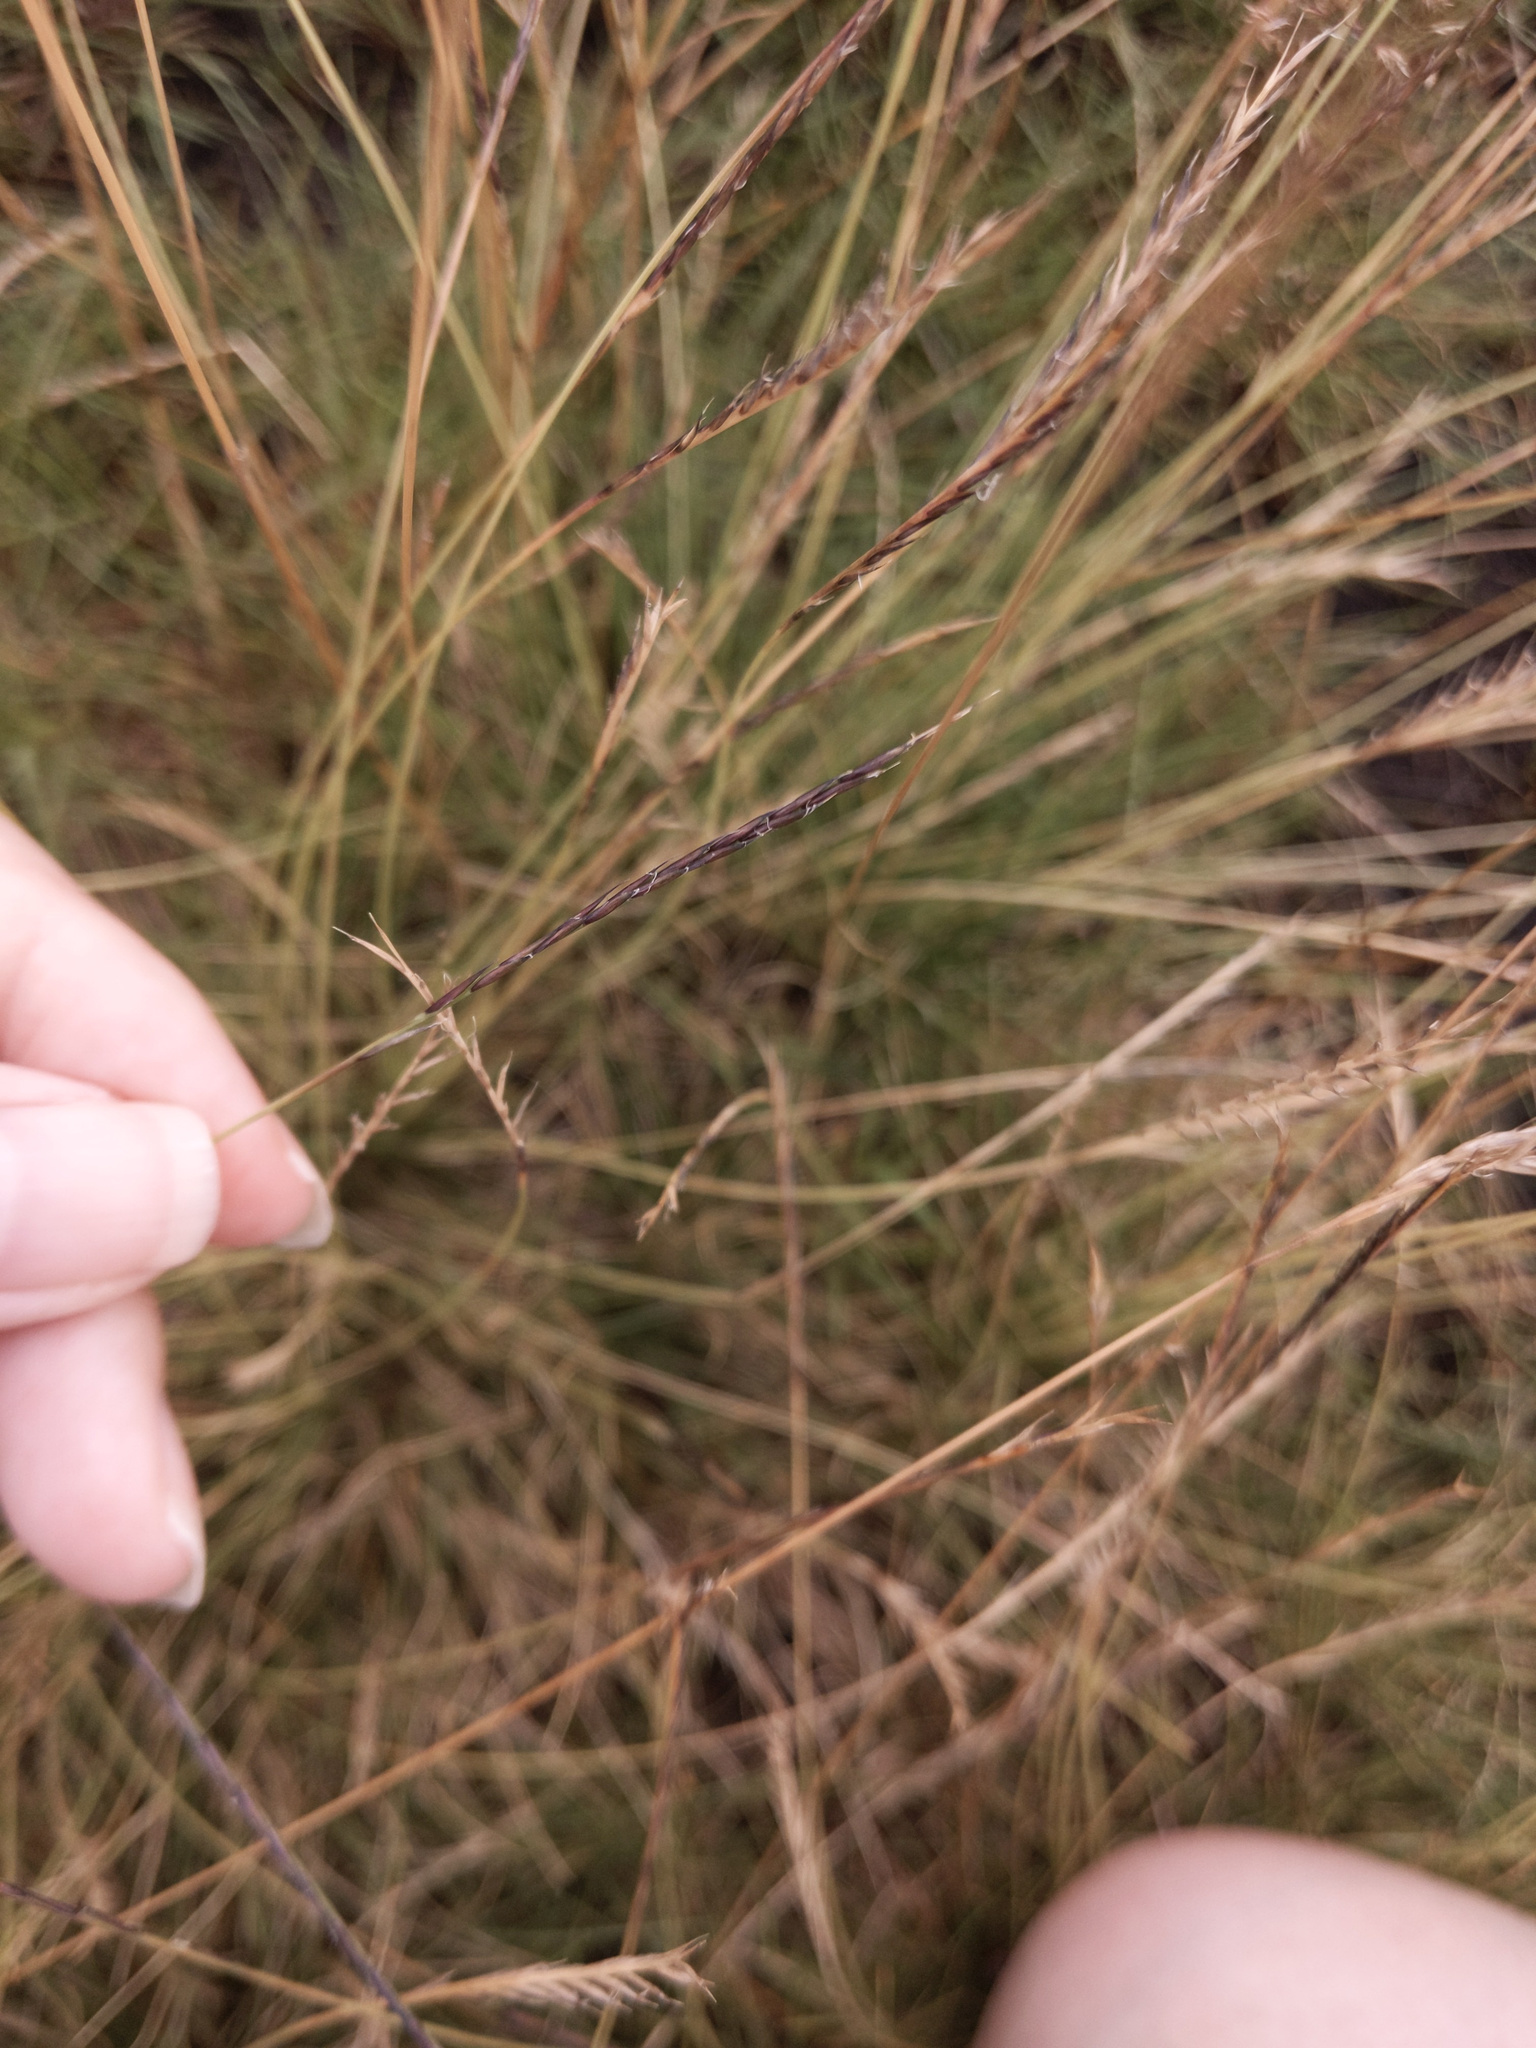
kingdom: Plantae
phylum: Tracheophyta
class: Liliopsida
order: Poales
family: Poaceae
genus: Nardus
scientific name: Nardus stricta
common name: Mat-grass
